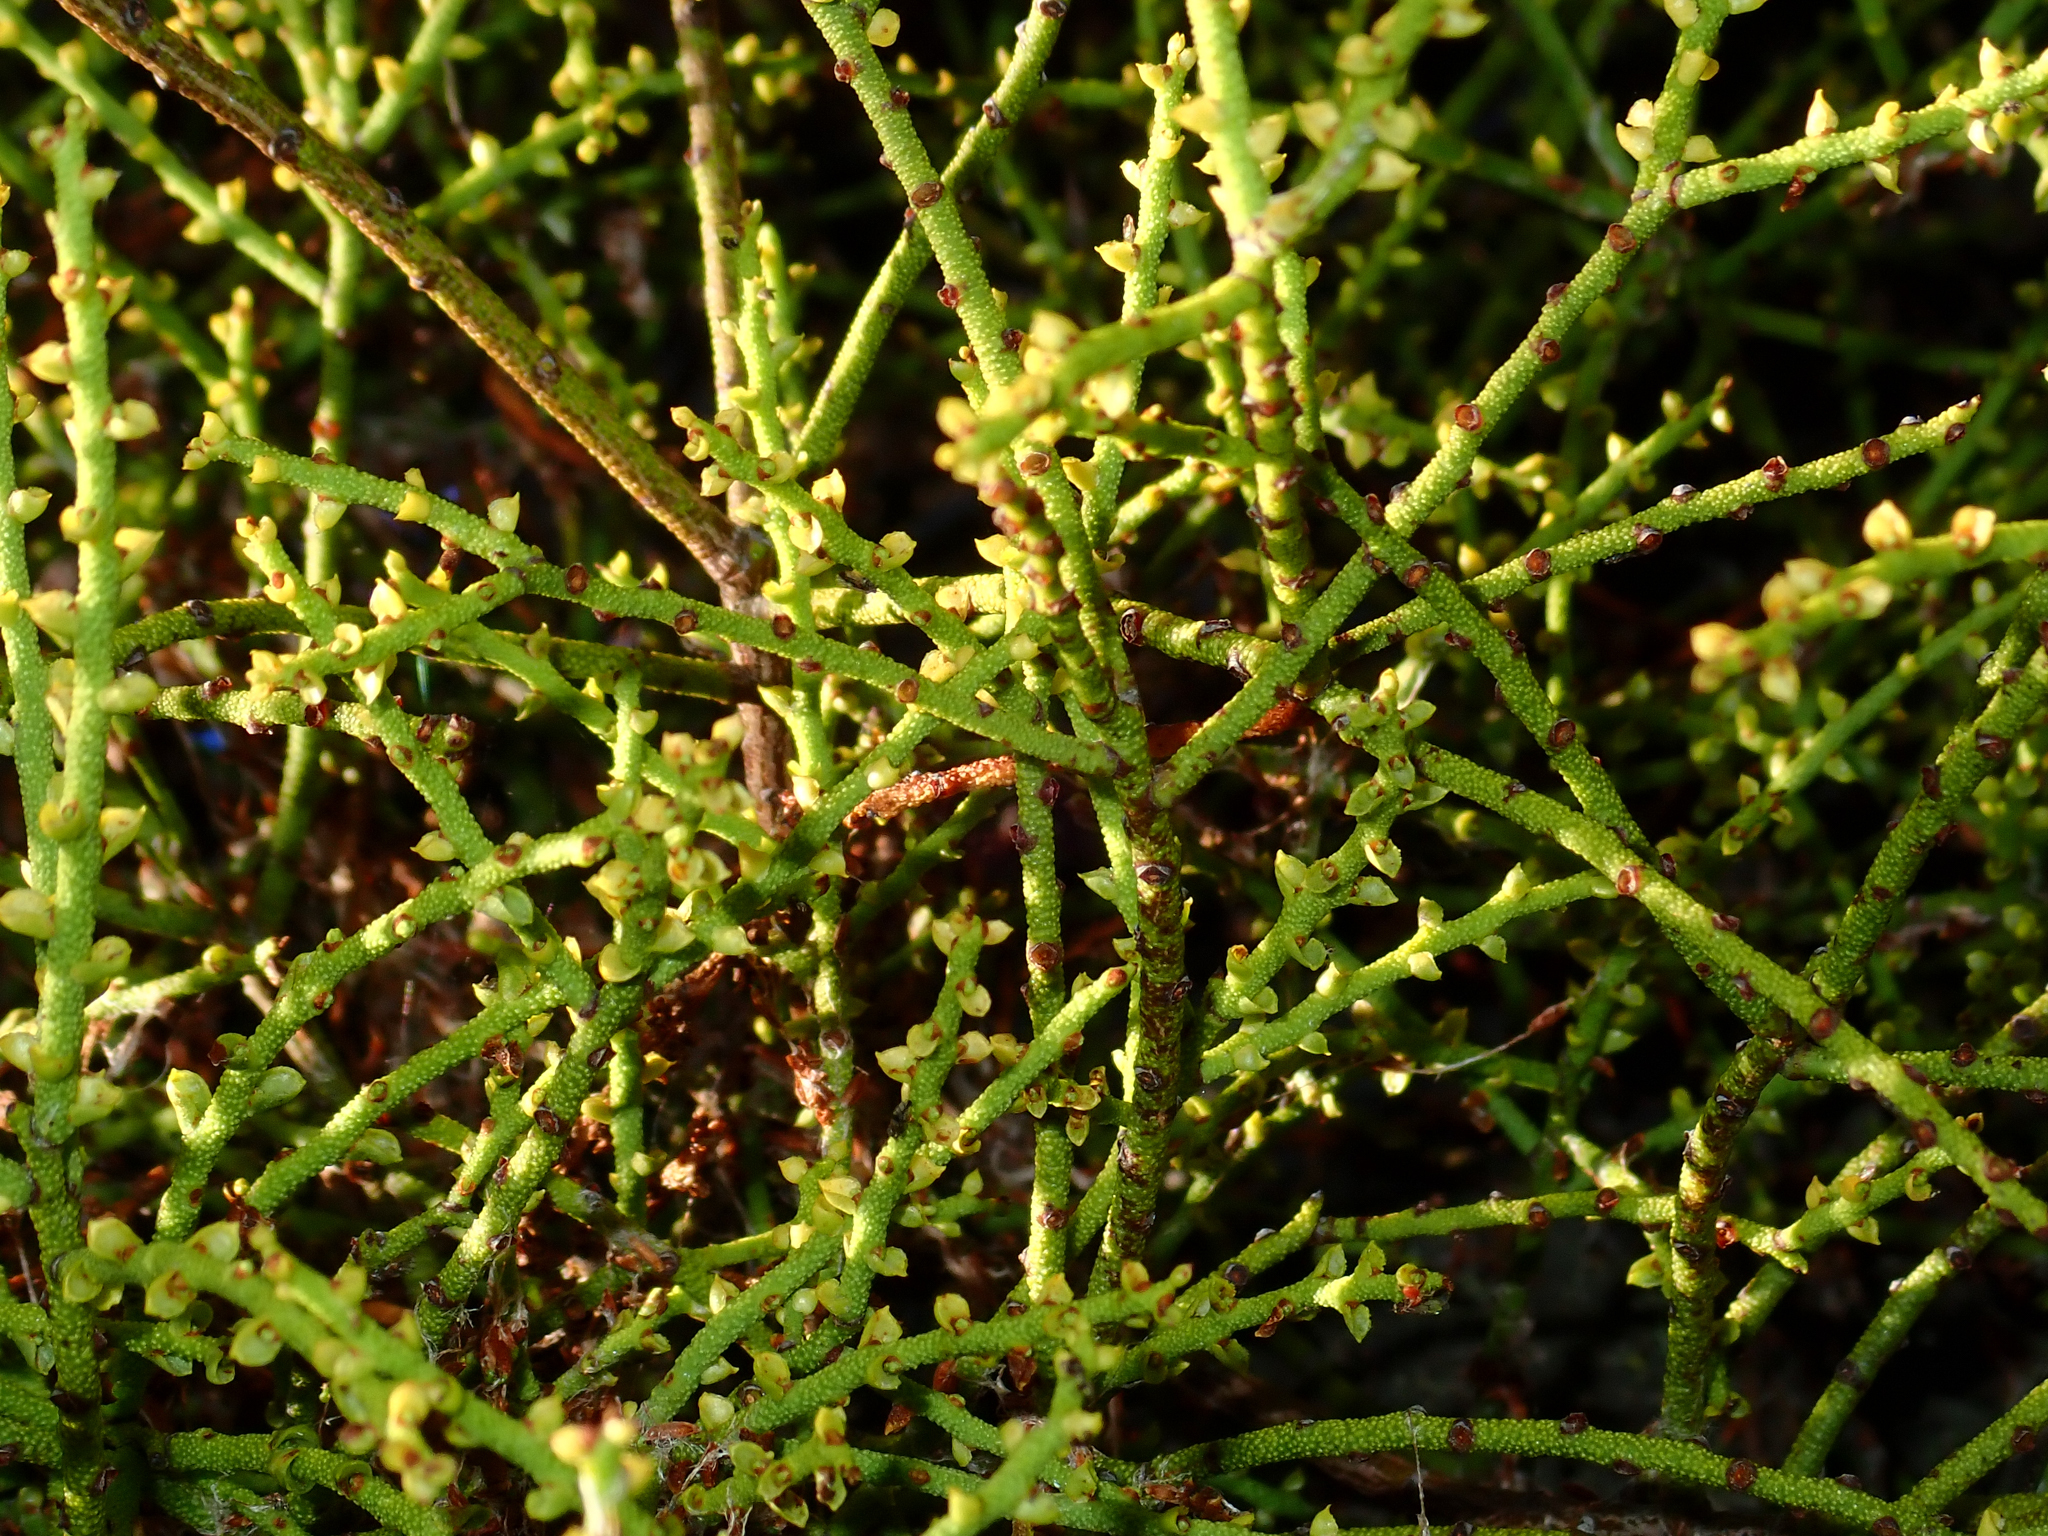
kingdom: Plantae
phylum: Tracheophyta
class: Magnoliopsida
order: Santalales
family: Misodendraceae
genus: Misodendrum
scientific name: Misodendrum punctulatum
